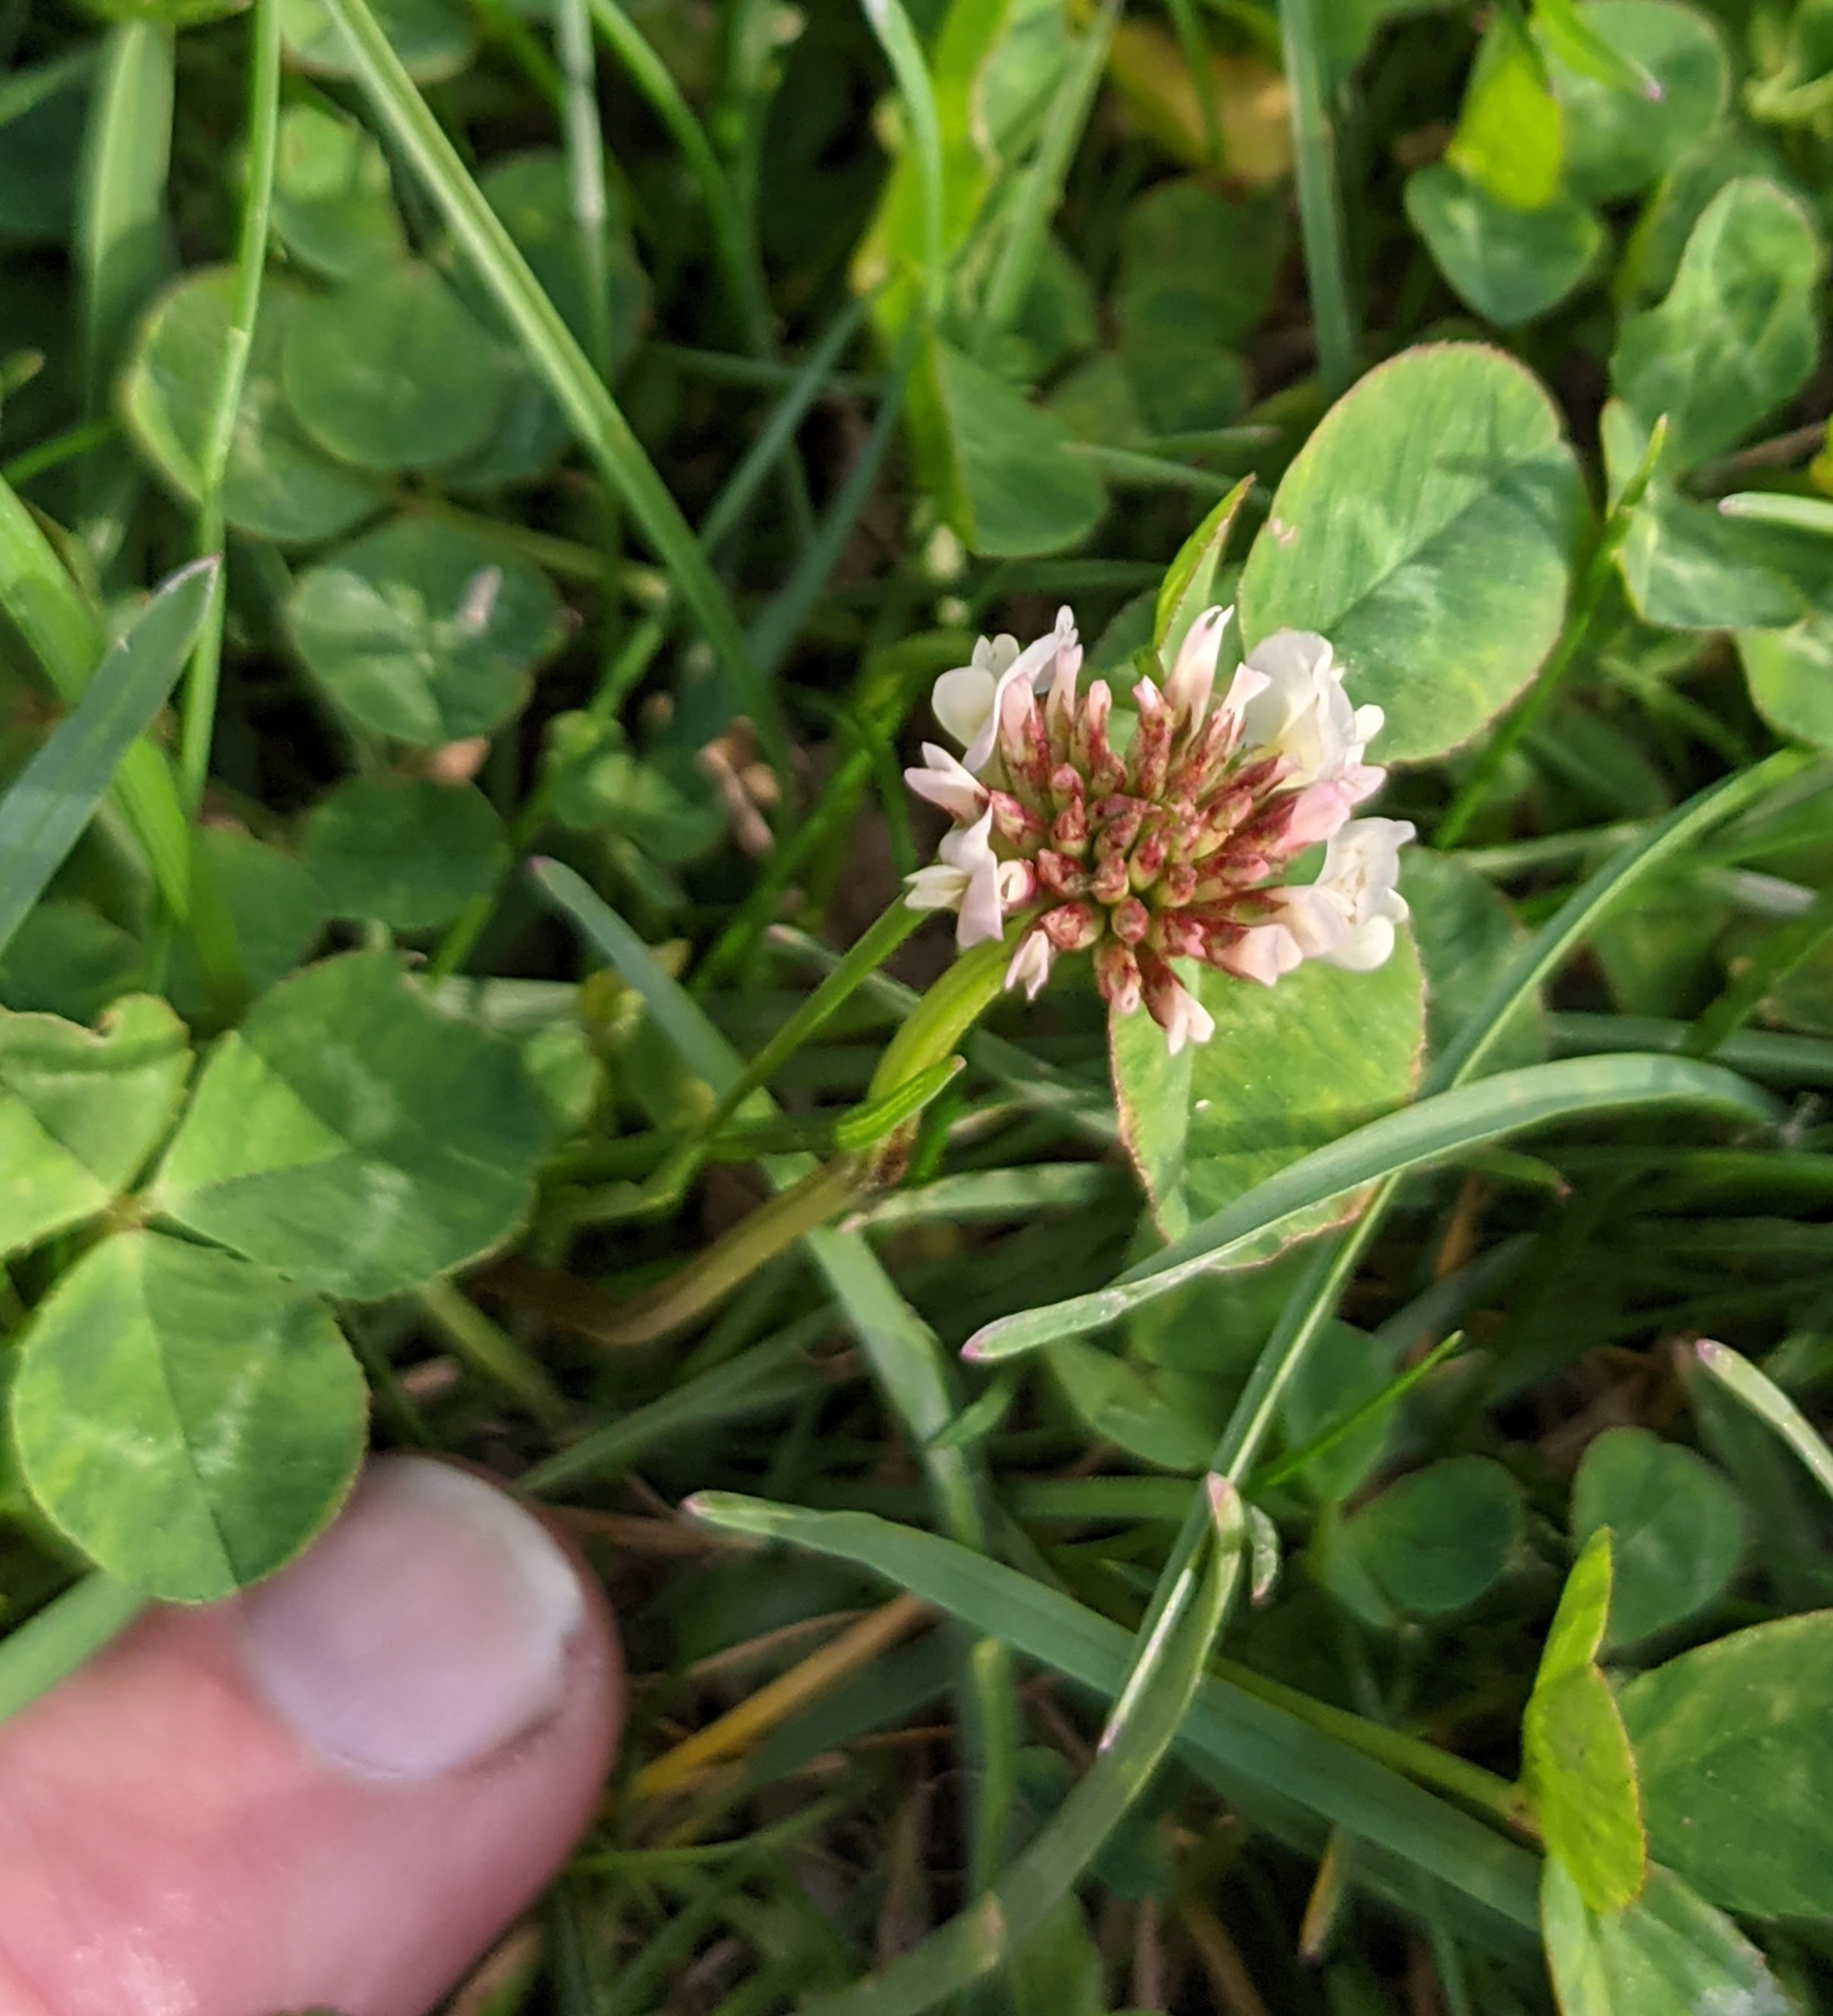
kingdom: Plantae
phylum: Tracheophyta
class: Magnoliopsida
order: Fabales
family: Fabaceae
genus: Trifolium
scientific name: Trifolium repens
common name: White clover
